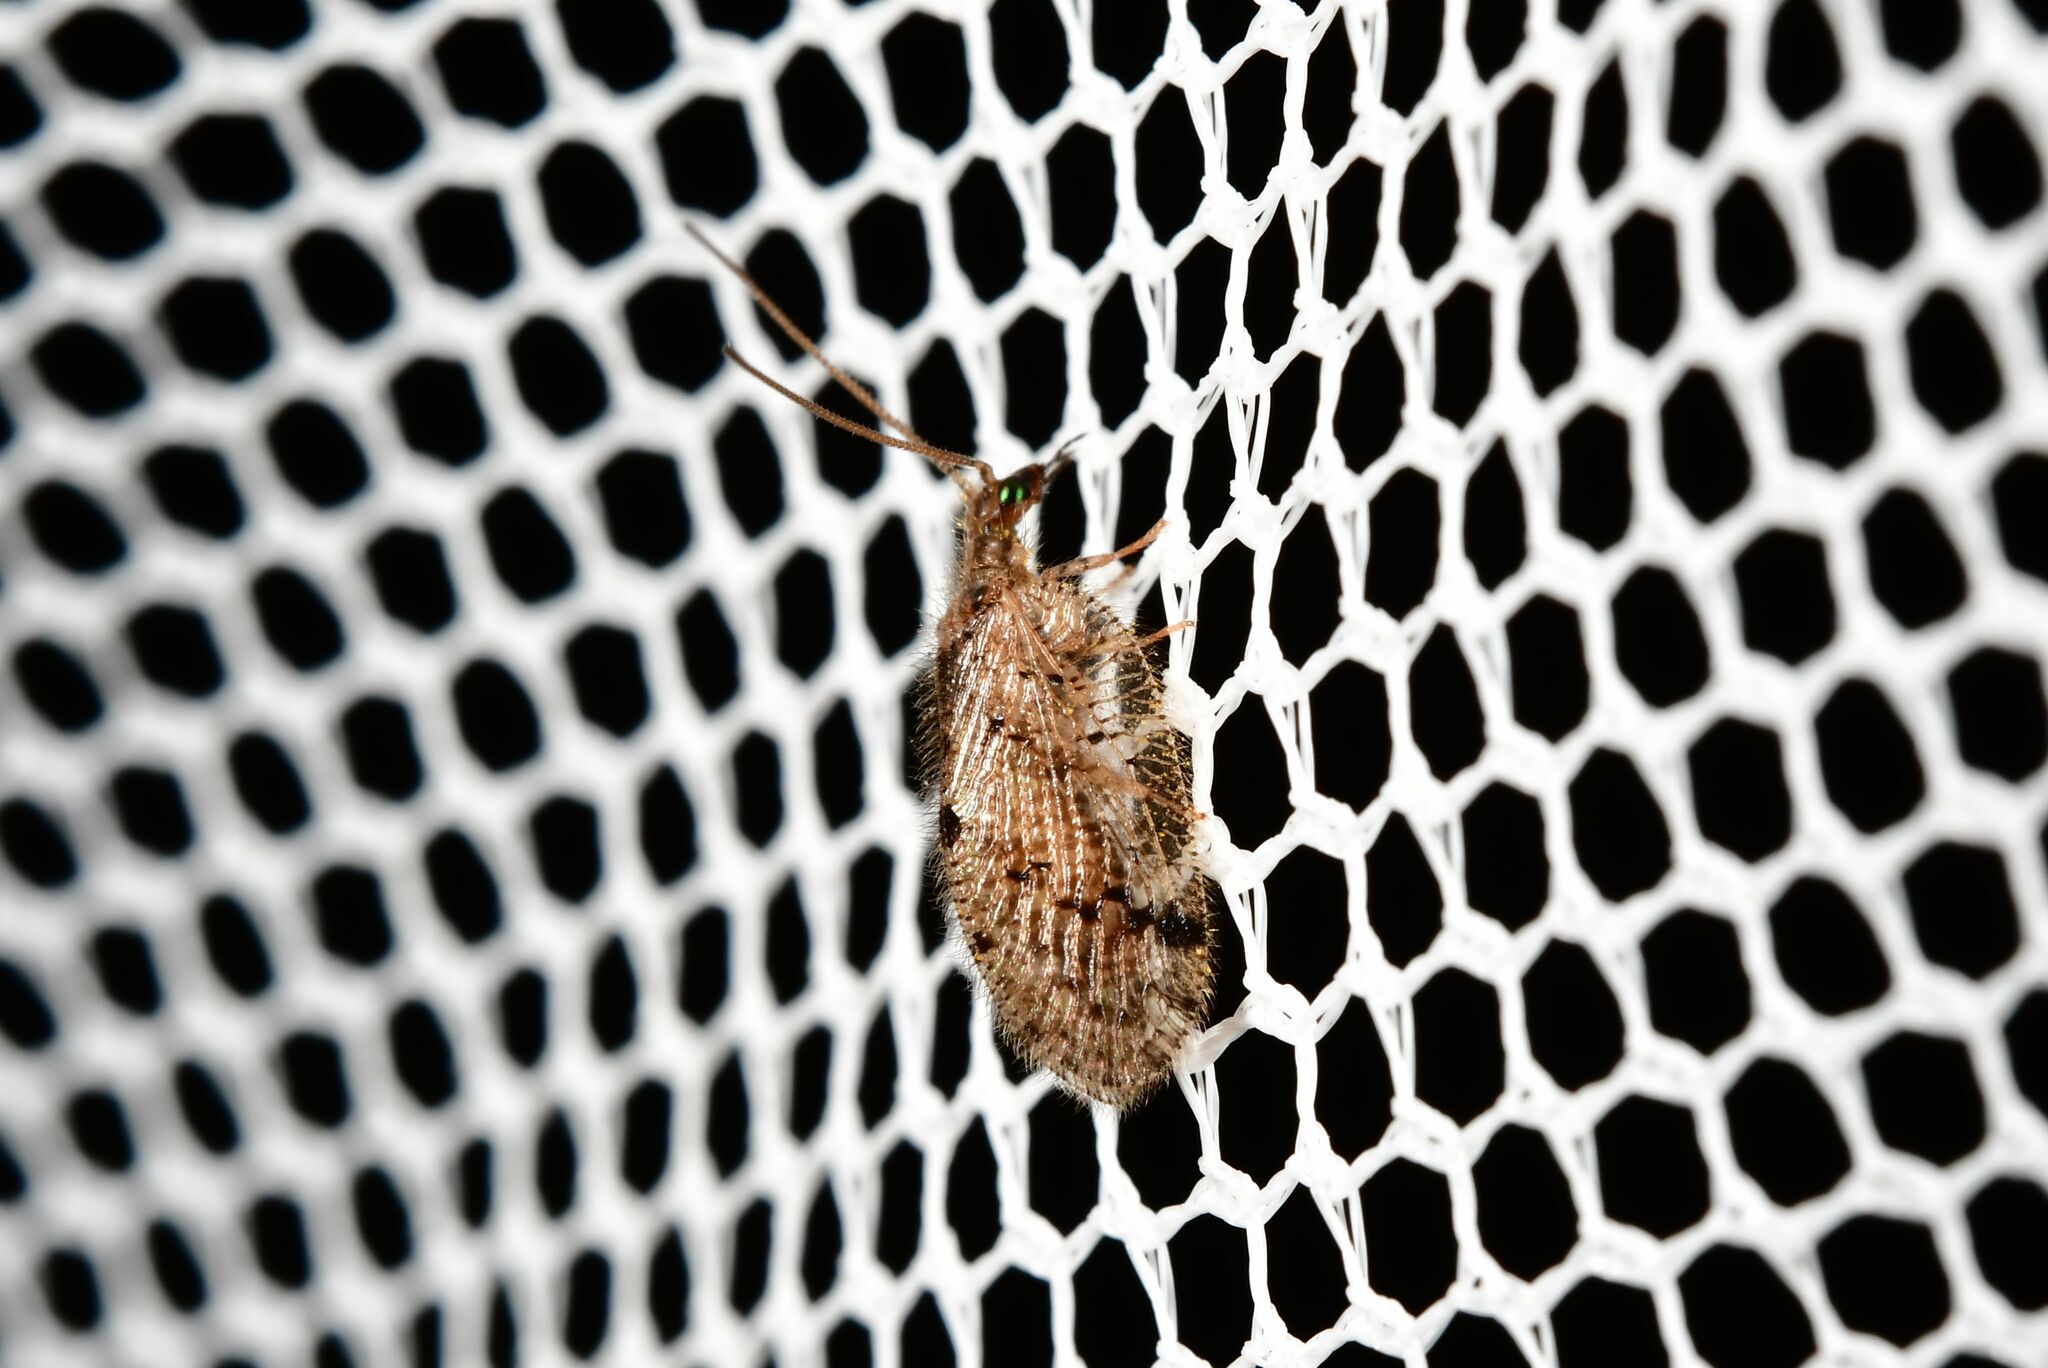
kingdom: Animalia
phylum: Arthropoda
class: Insecta
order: Neuroptera
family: Hemerobiidae
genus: Psectra
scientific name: Psectra nakaharai
